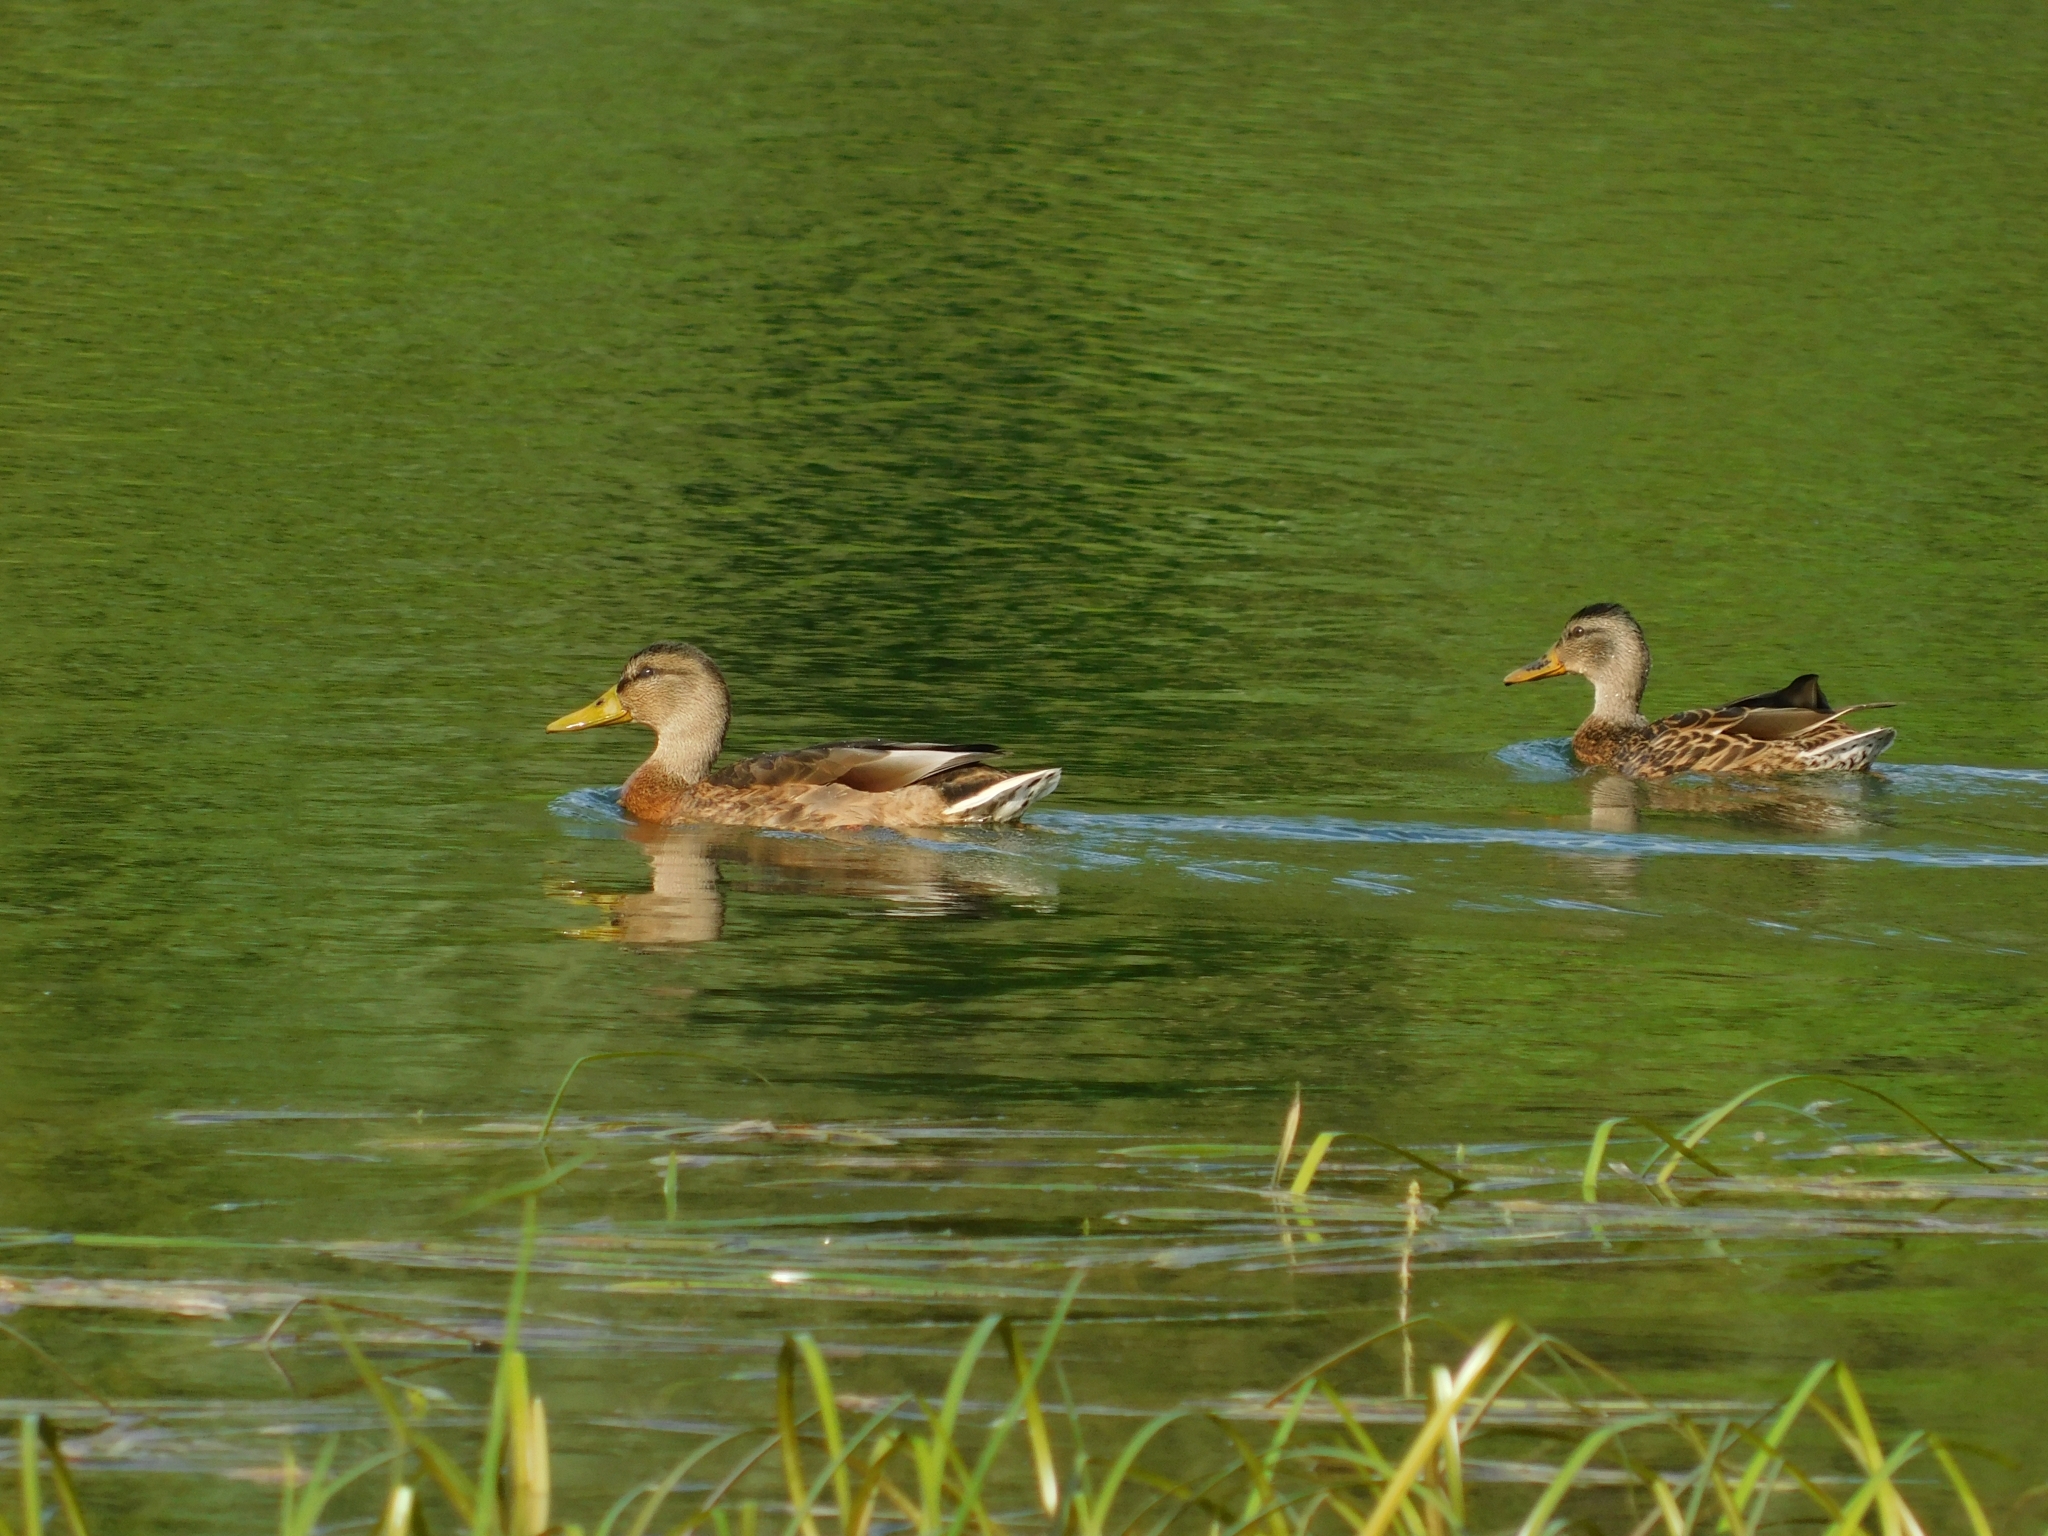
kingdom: Animalia
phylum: Chordata
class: Aves
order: Anseriformes
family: Anatidae
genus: Anas
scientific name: Anas platyrhynchos
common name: Mallard
